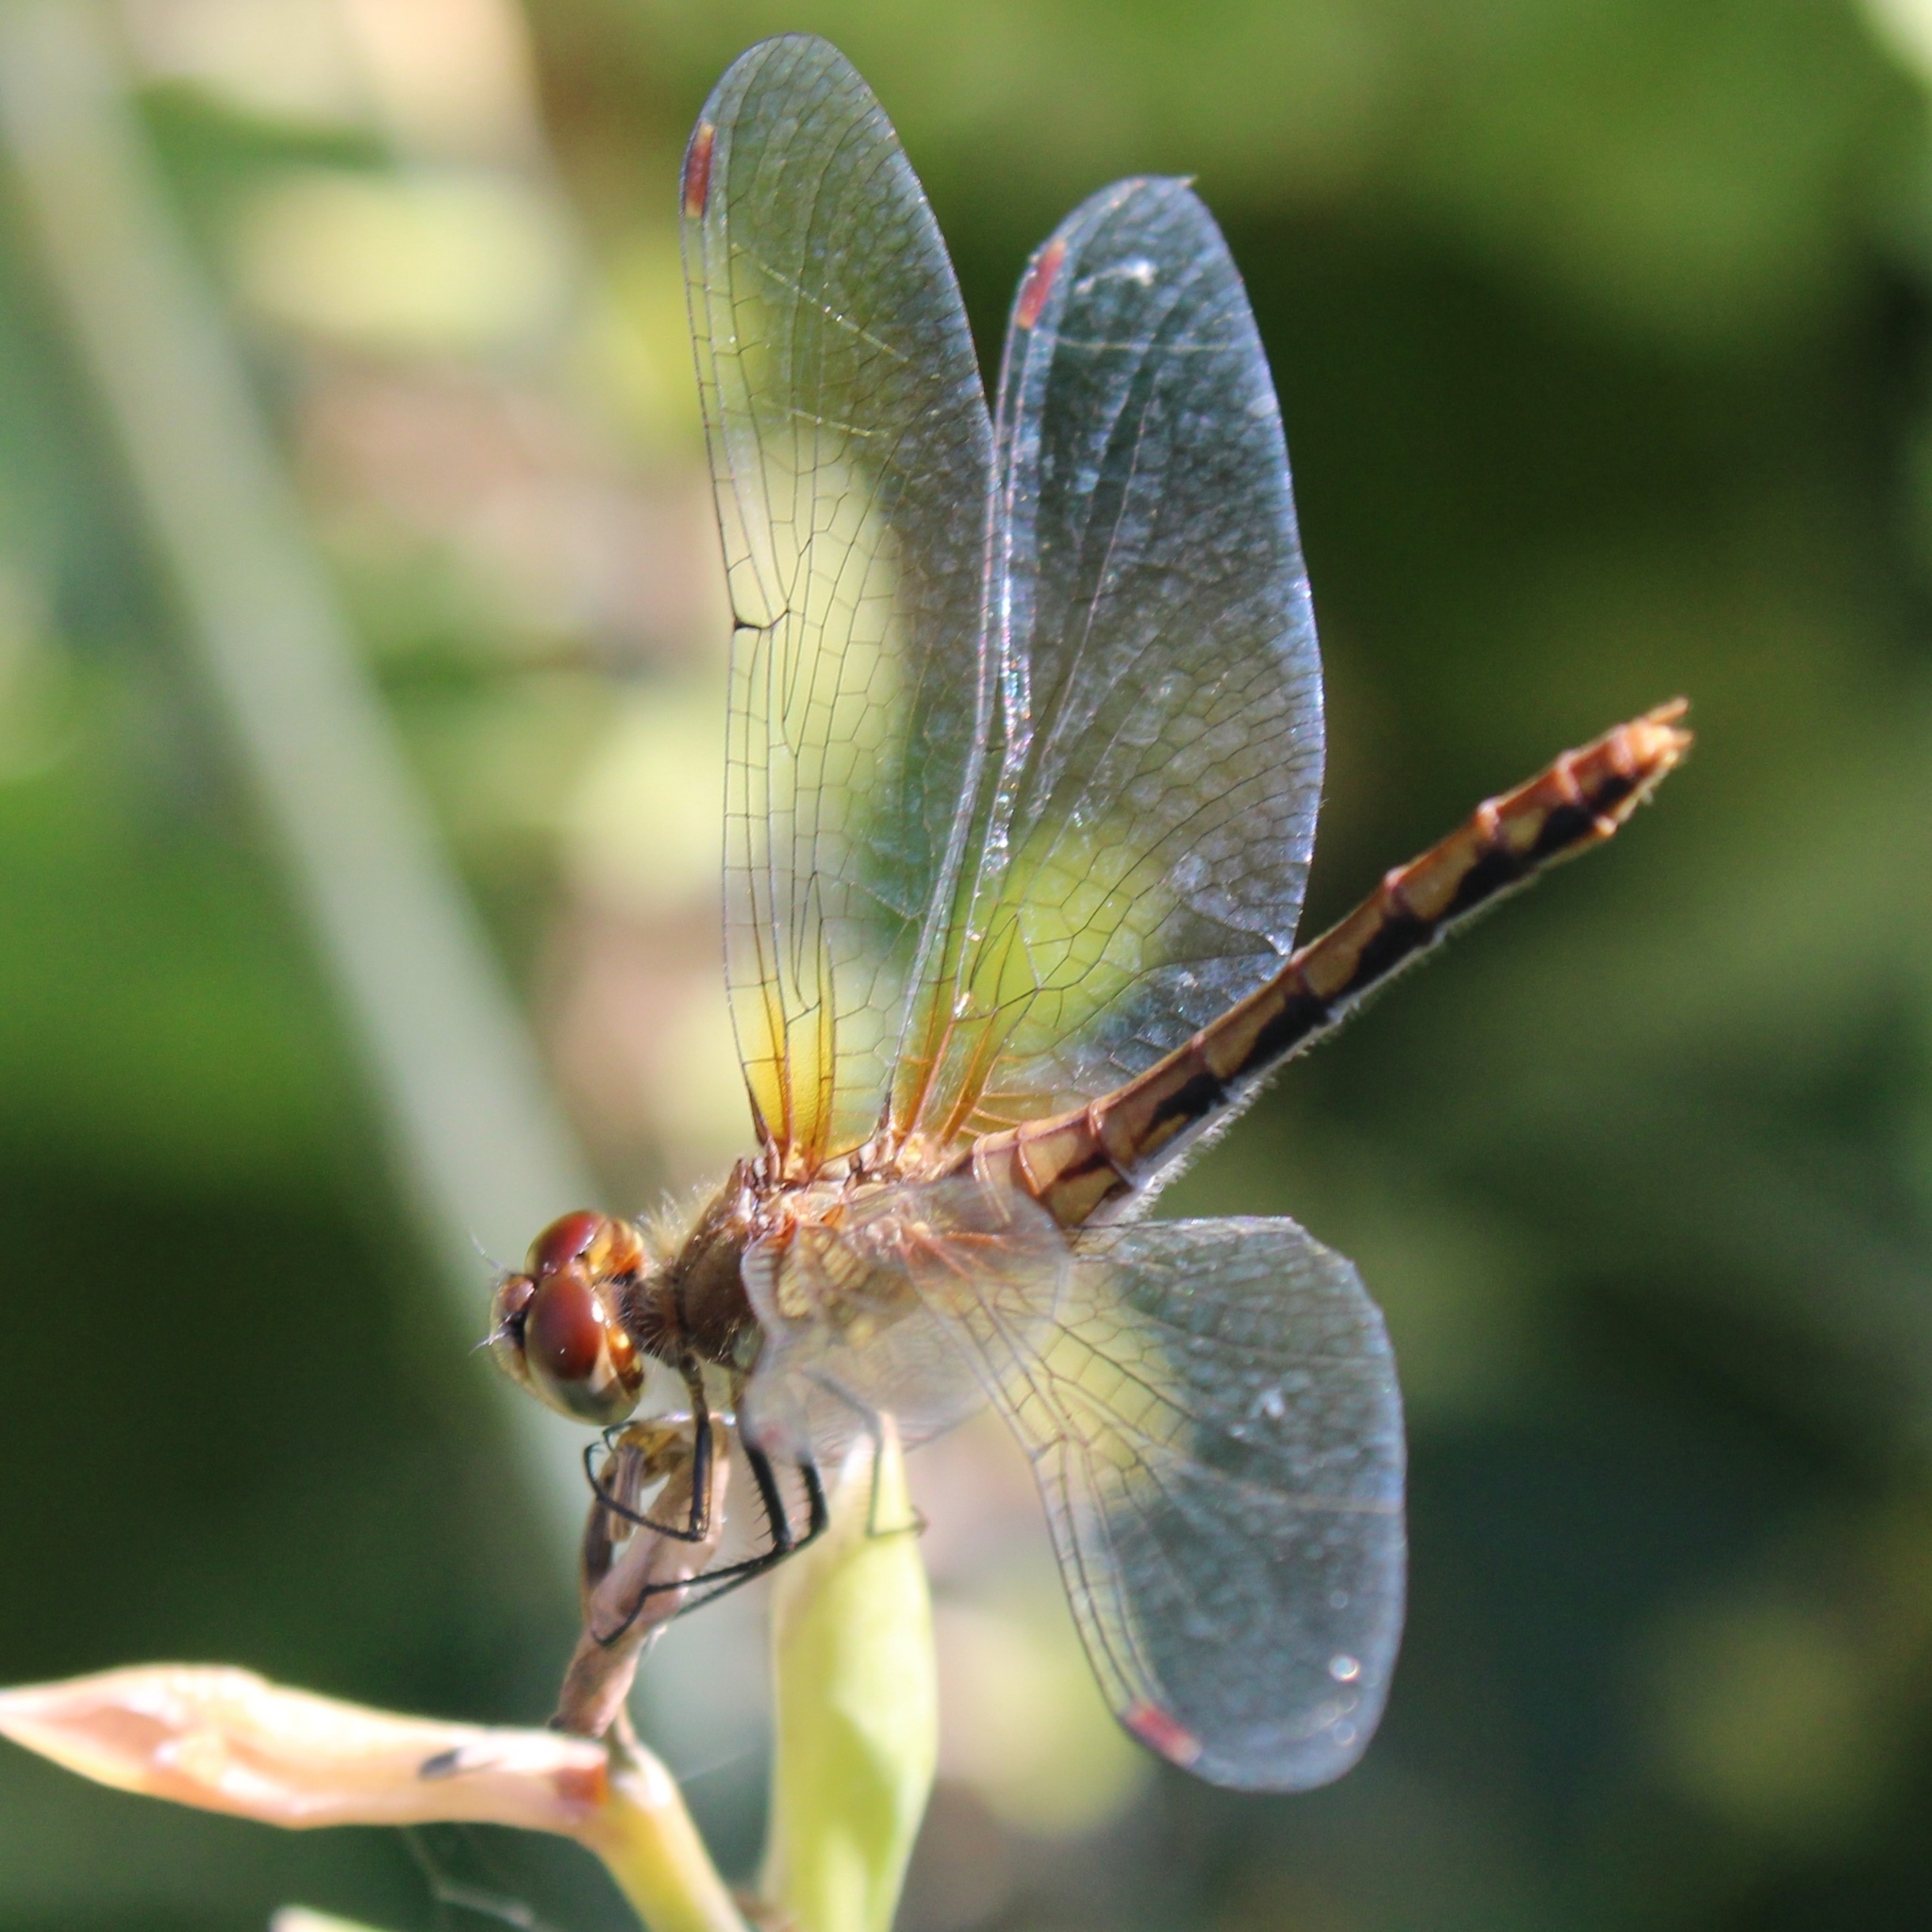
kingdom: Animalia
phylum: Arthropoda
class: Insecta
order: Odonata
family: Libellulidae
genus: Sympetrum
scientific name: Sympetrum obtrusum
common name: White-faced meadowhawk
